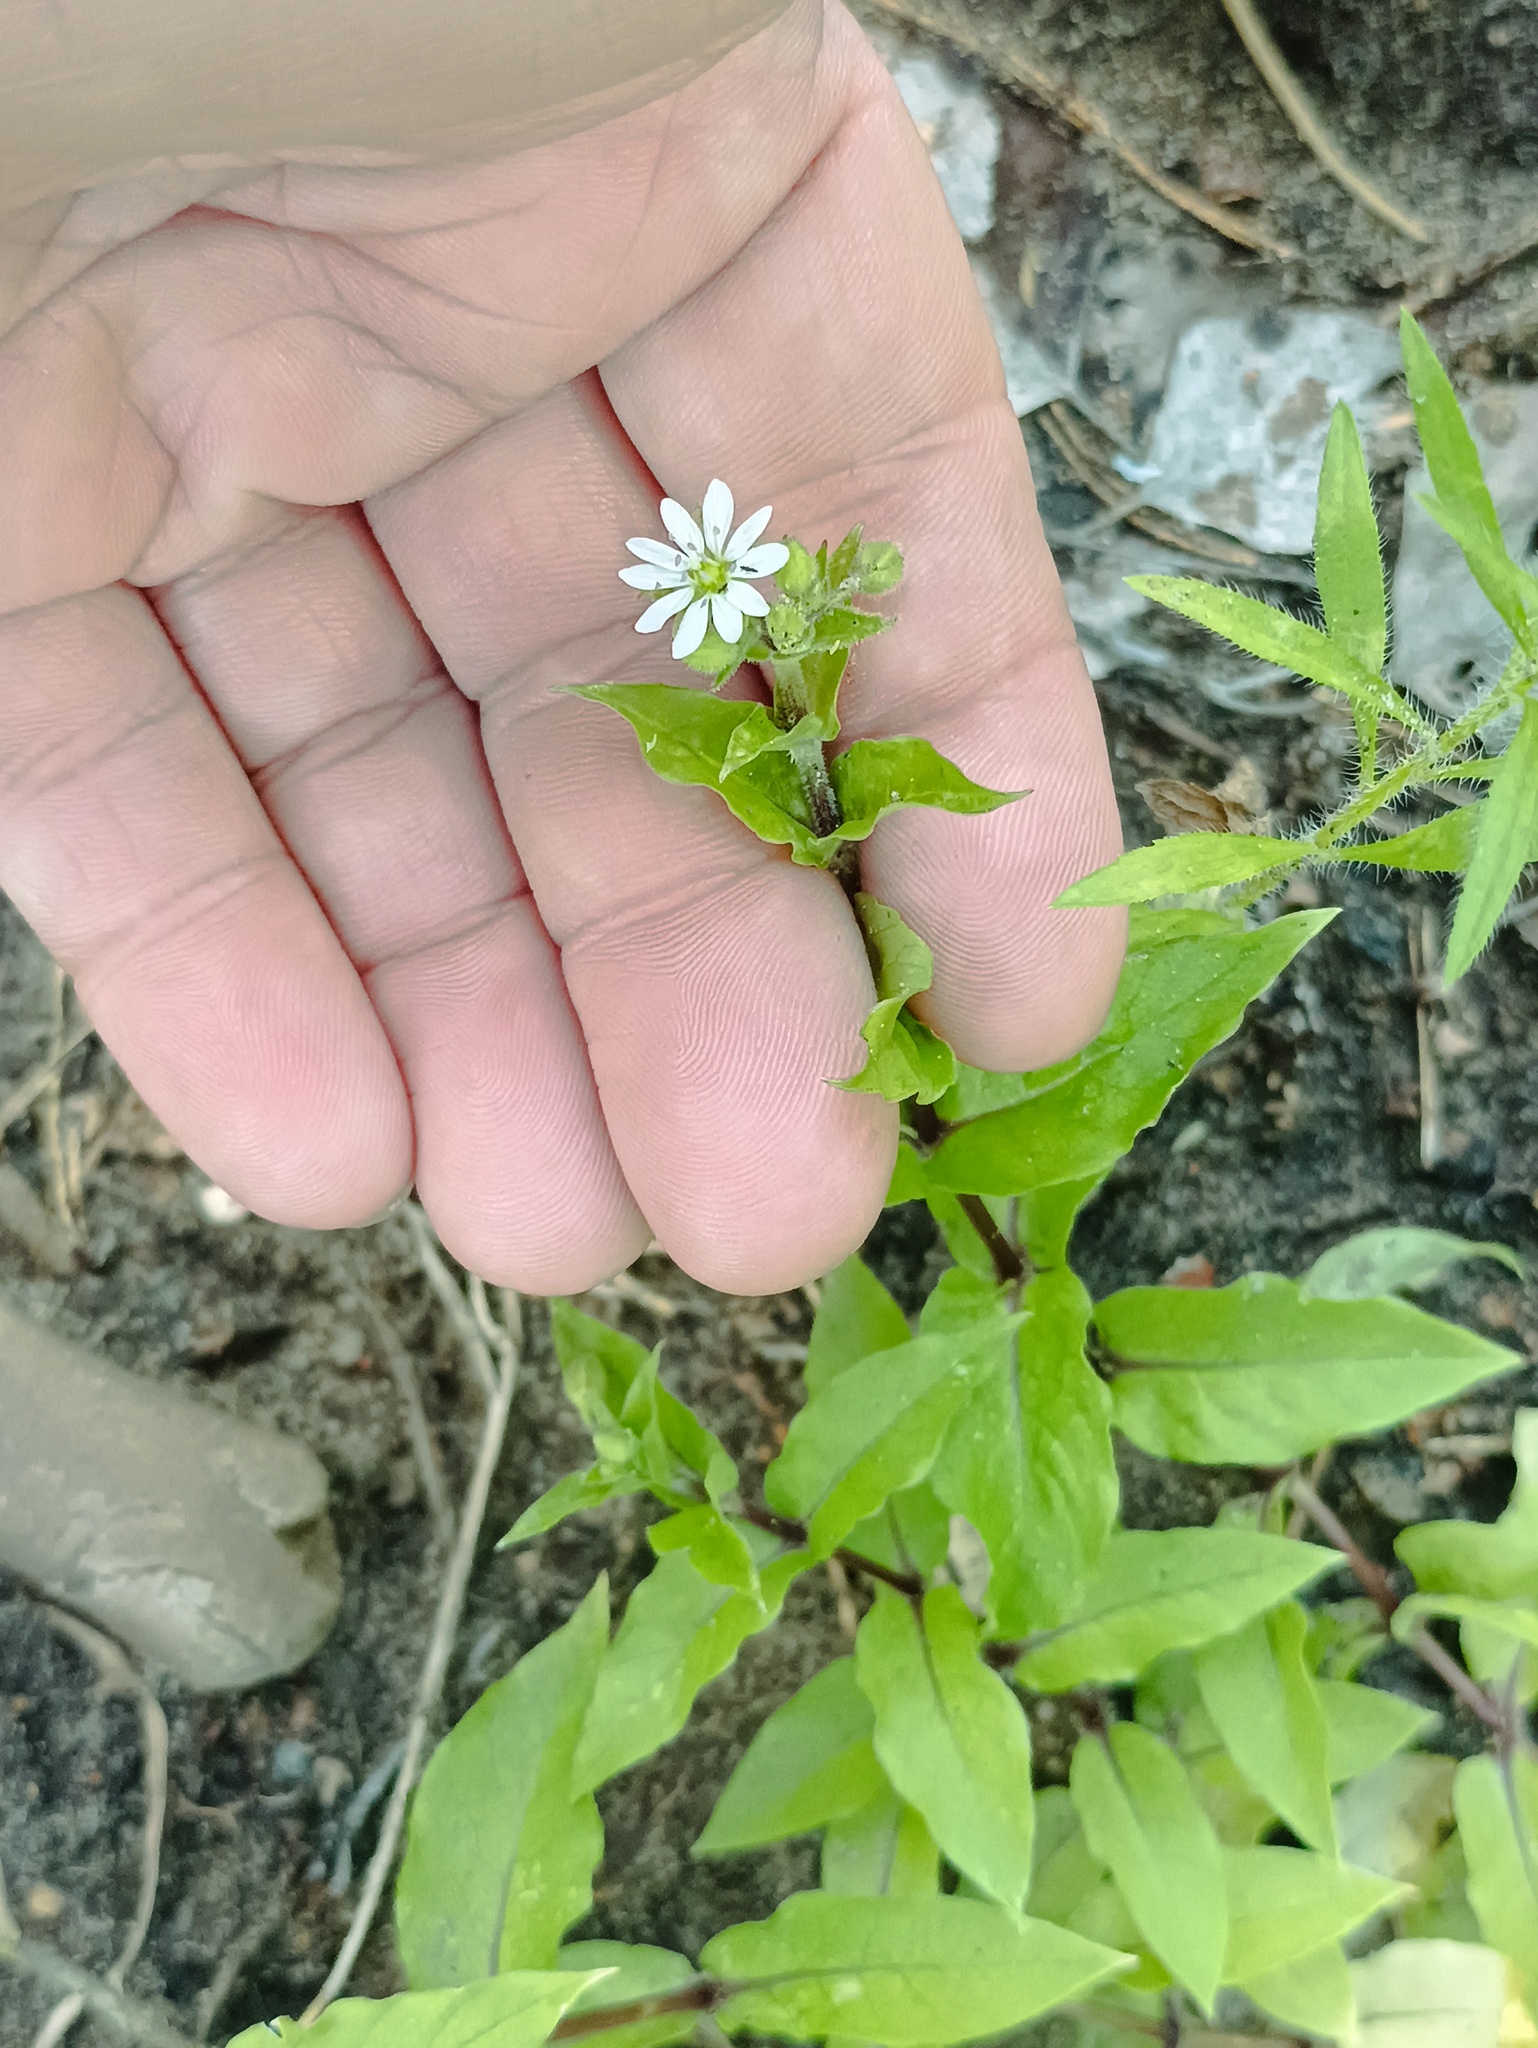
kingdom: Plantae
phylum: Tracheophyta
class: Magnoliopsida
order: Caryophyllales
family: Caryophyllaceae
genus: Stellaria
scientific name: Stellaria aquatica
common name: Water chickweed
